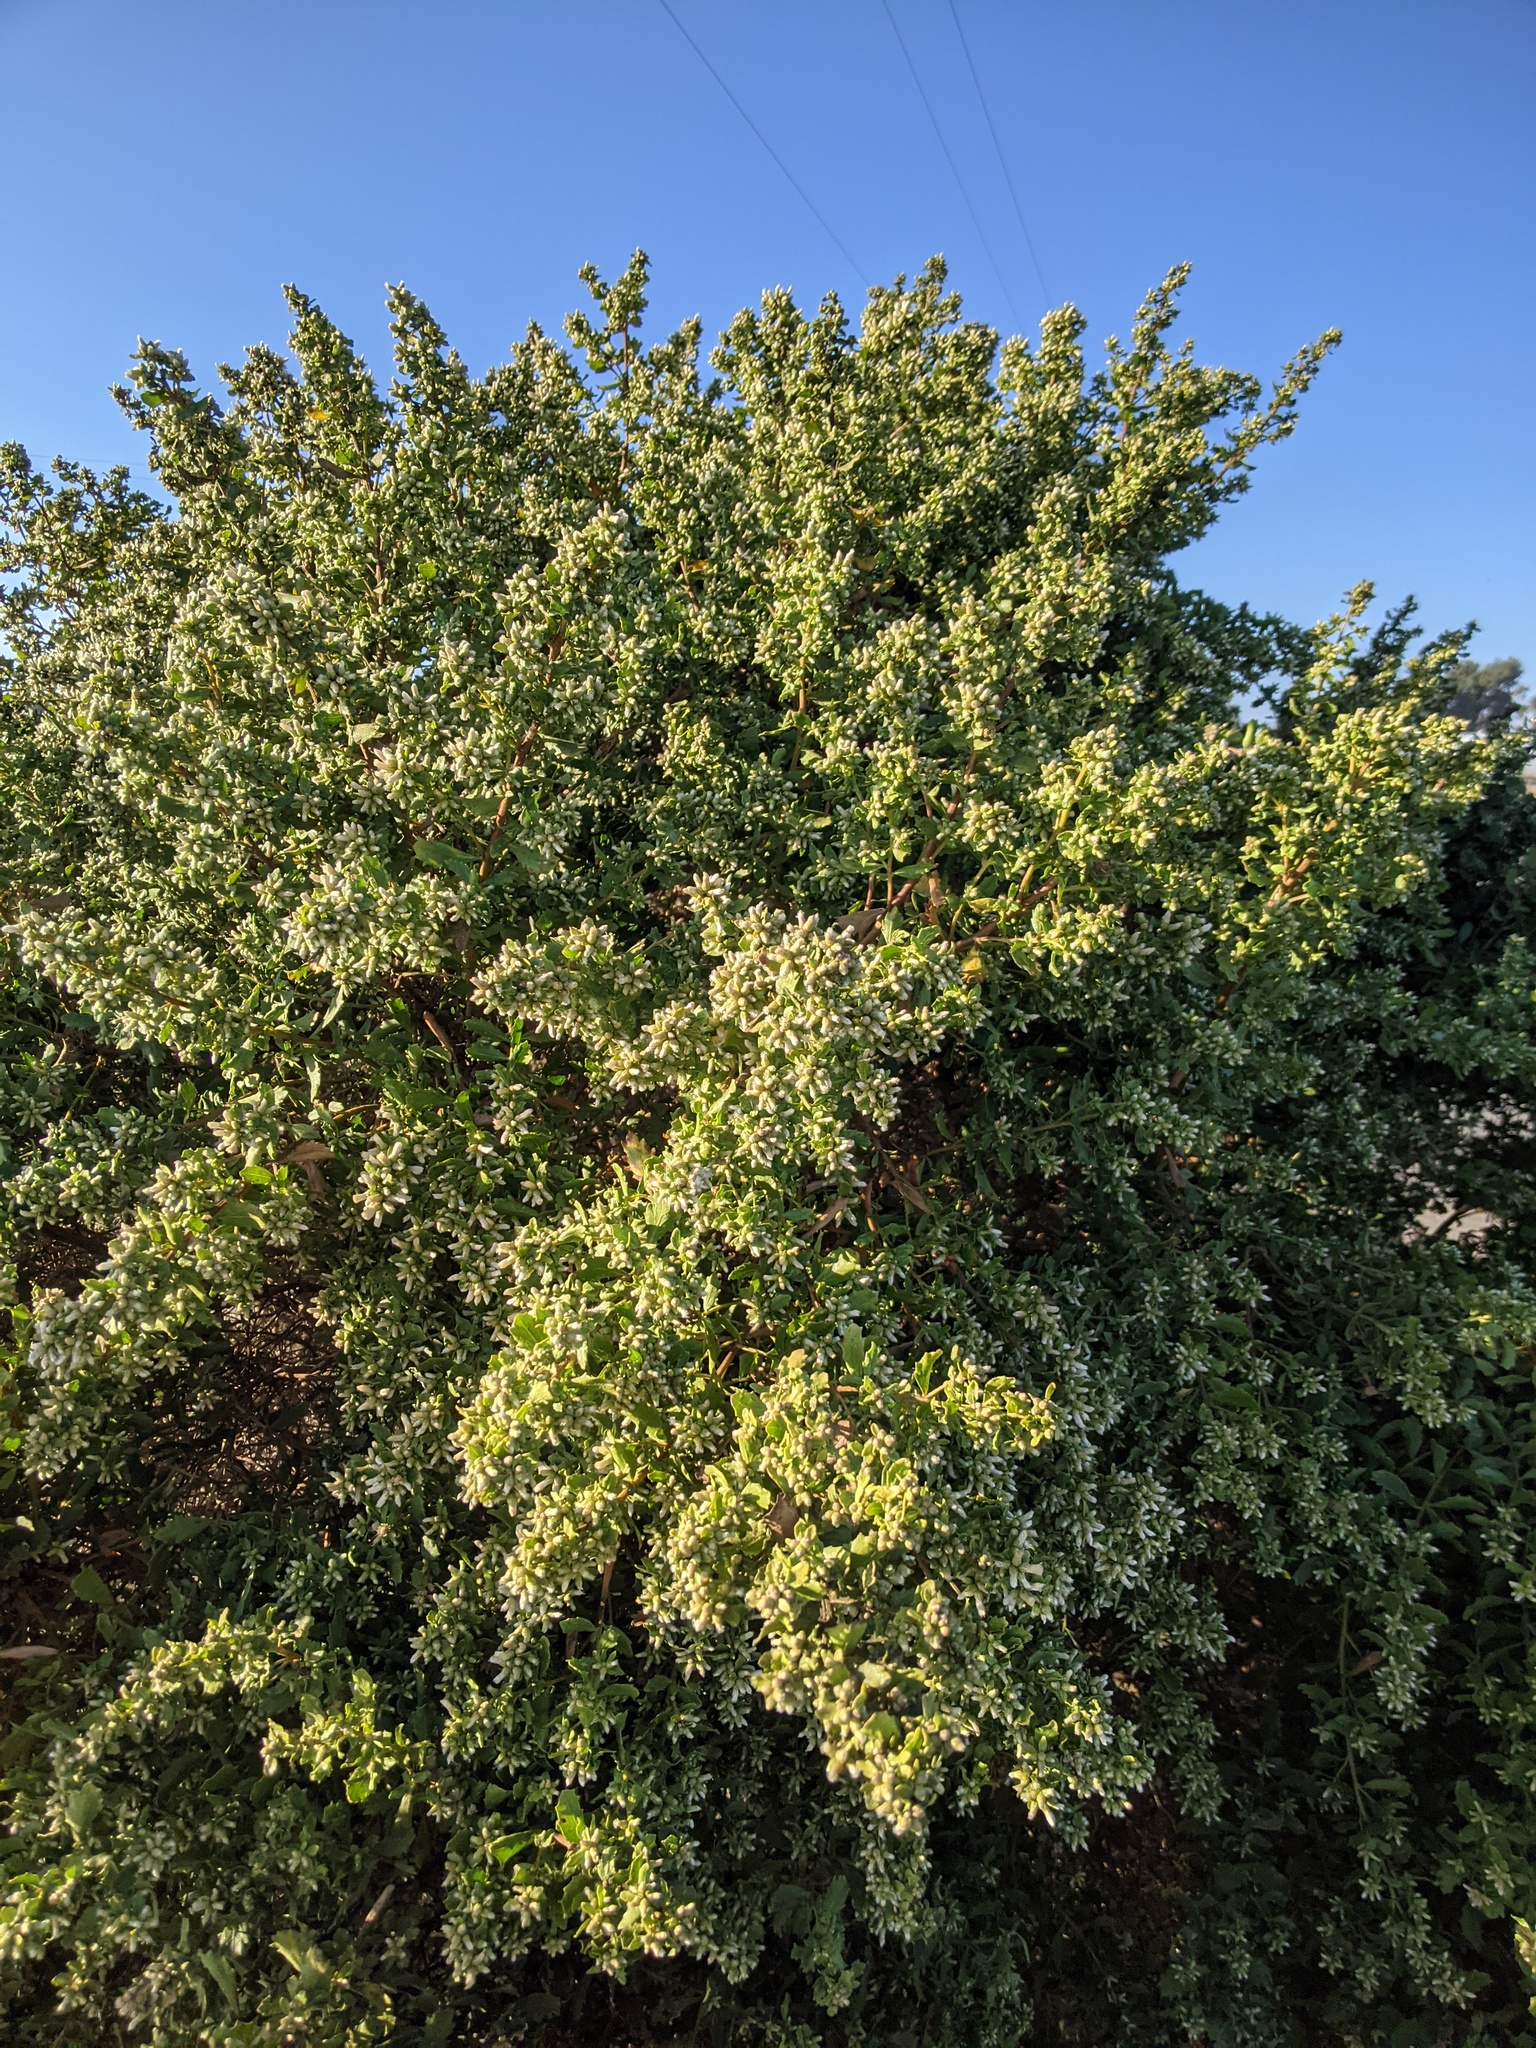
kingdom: Plantae
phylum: Tracheophyta
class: Magnoliopsida
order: Asterales
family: Asteraceae
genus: Baccharis
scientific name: Baccharis pilularis
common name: Coyotebrush
